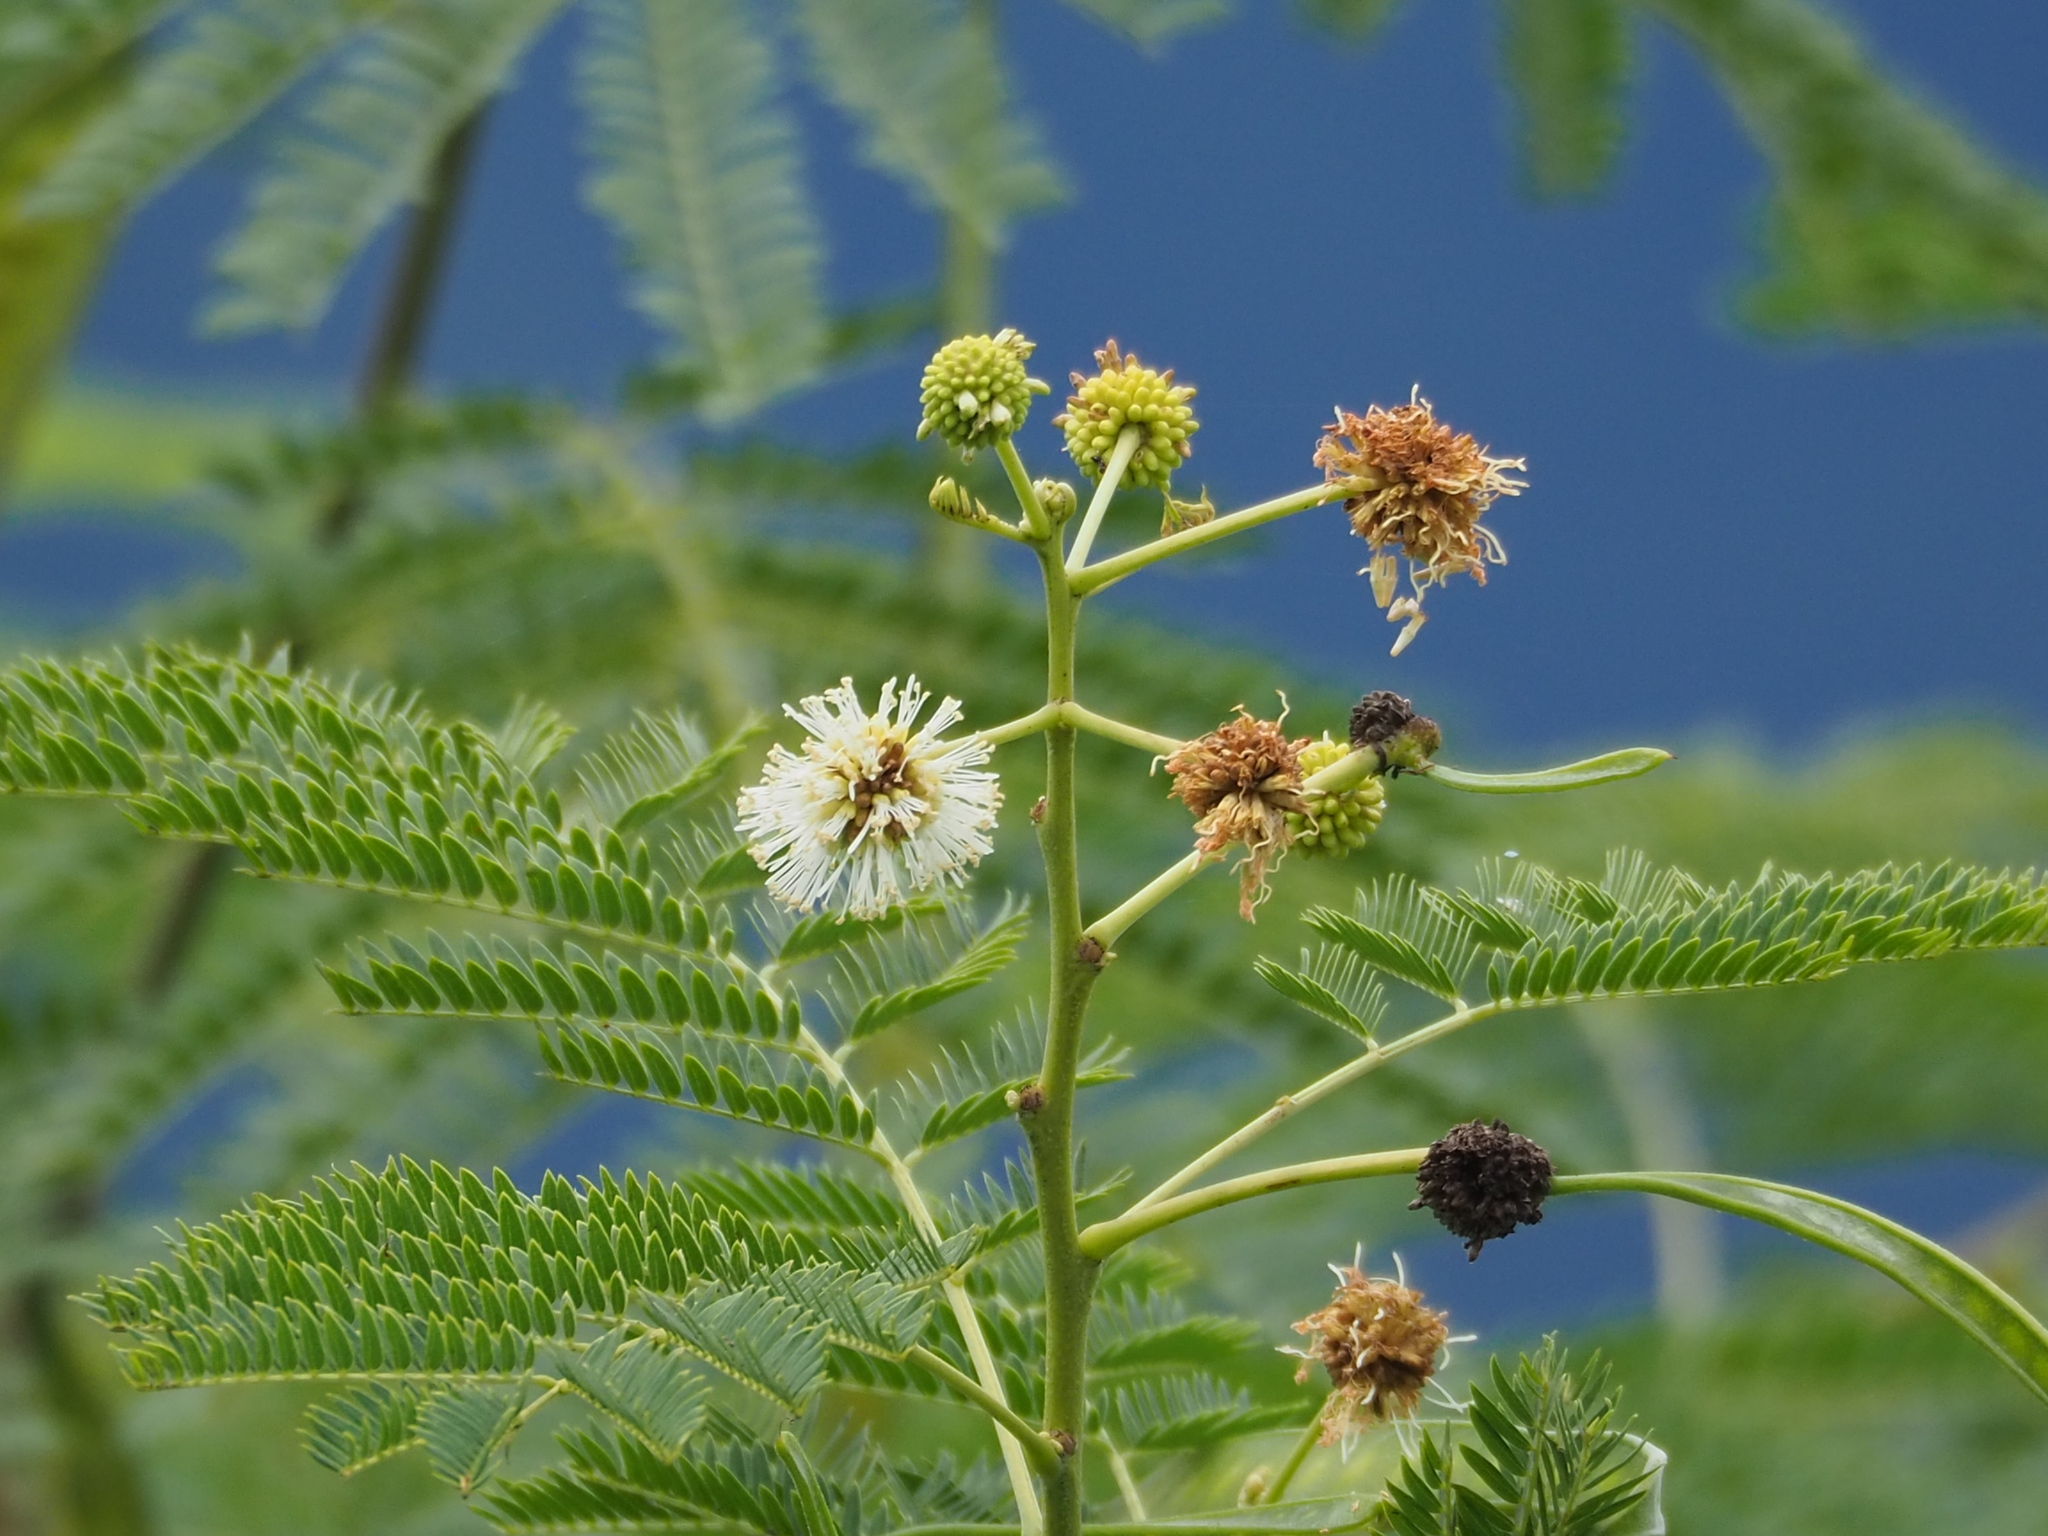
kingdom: Plantae
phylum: Tracheophyta
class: Magnoliopsida
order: Fabales
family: Fabaceae
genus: Leucaena
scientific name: Leucaena leucocephala
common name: White leadtree
